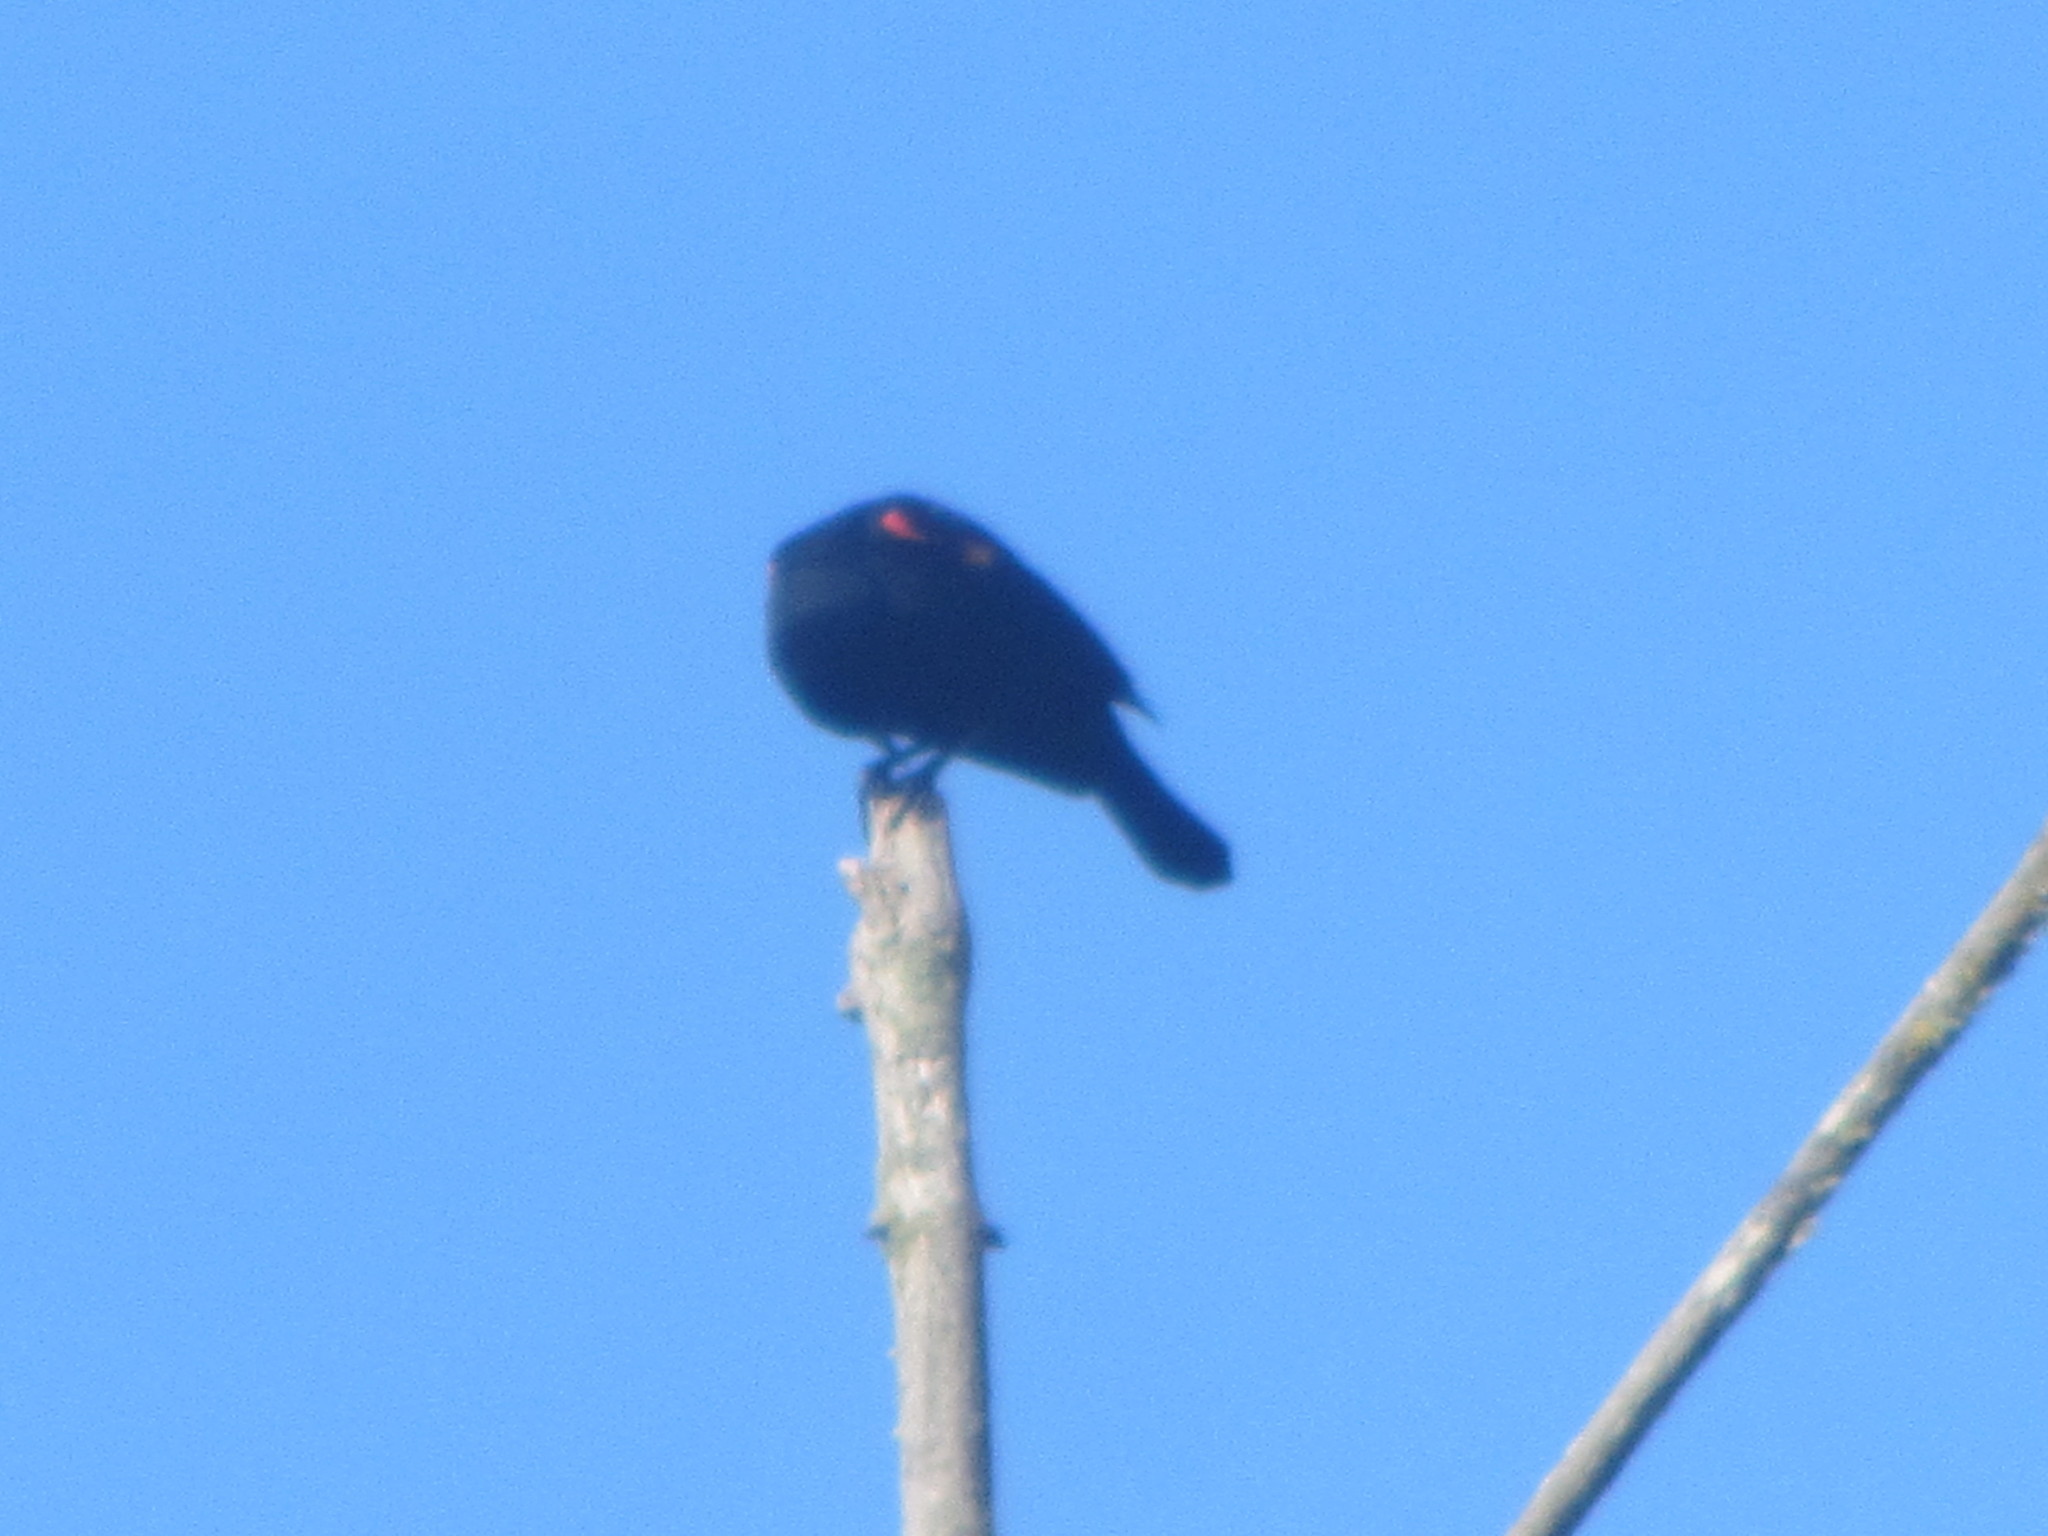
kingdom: Animalia
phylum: Chordata
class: Aves
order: Passeriformes
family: Icteridae
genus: Agelaius
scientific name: Agelaius phoeniceus
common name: Red-winged blackbird
